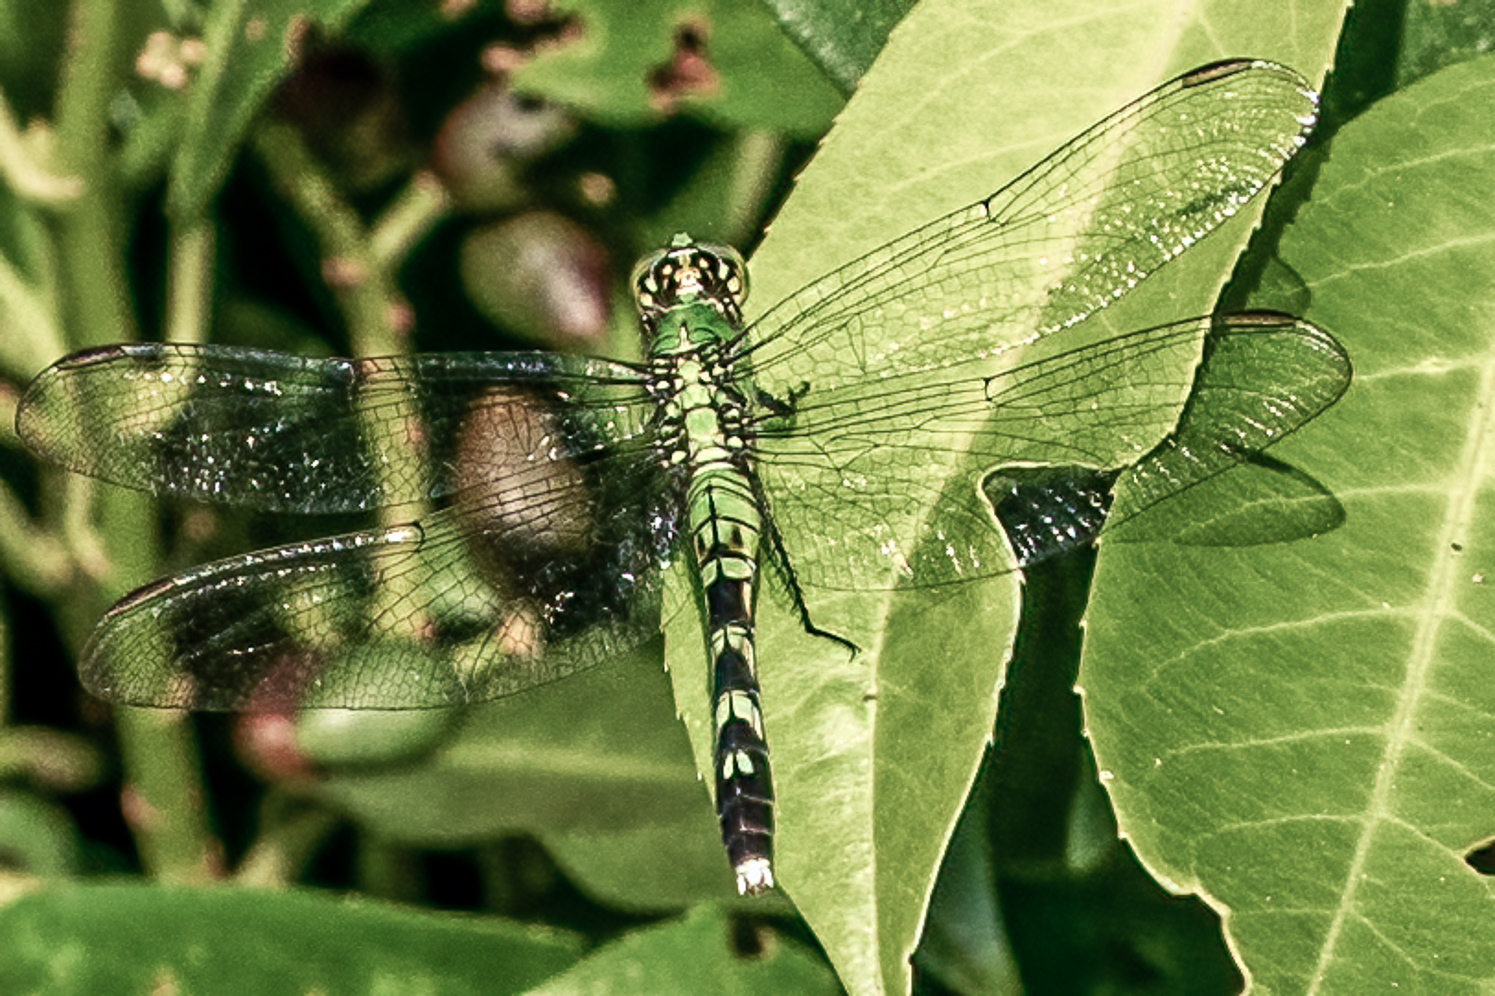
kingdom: Animalia
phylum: Arthropoda
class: Insecta
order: Odonata
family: Libellulidae
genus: Erythemis
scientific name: Erythemis simplicicollis
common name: Eastern pondhawk
